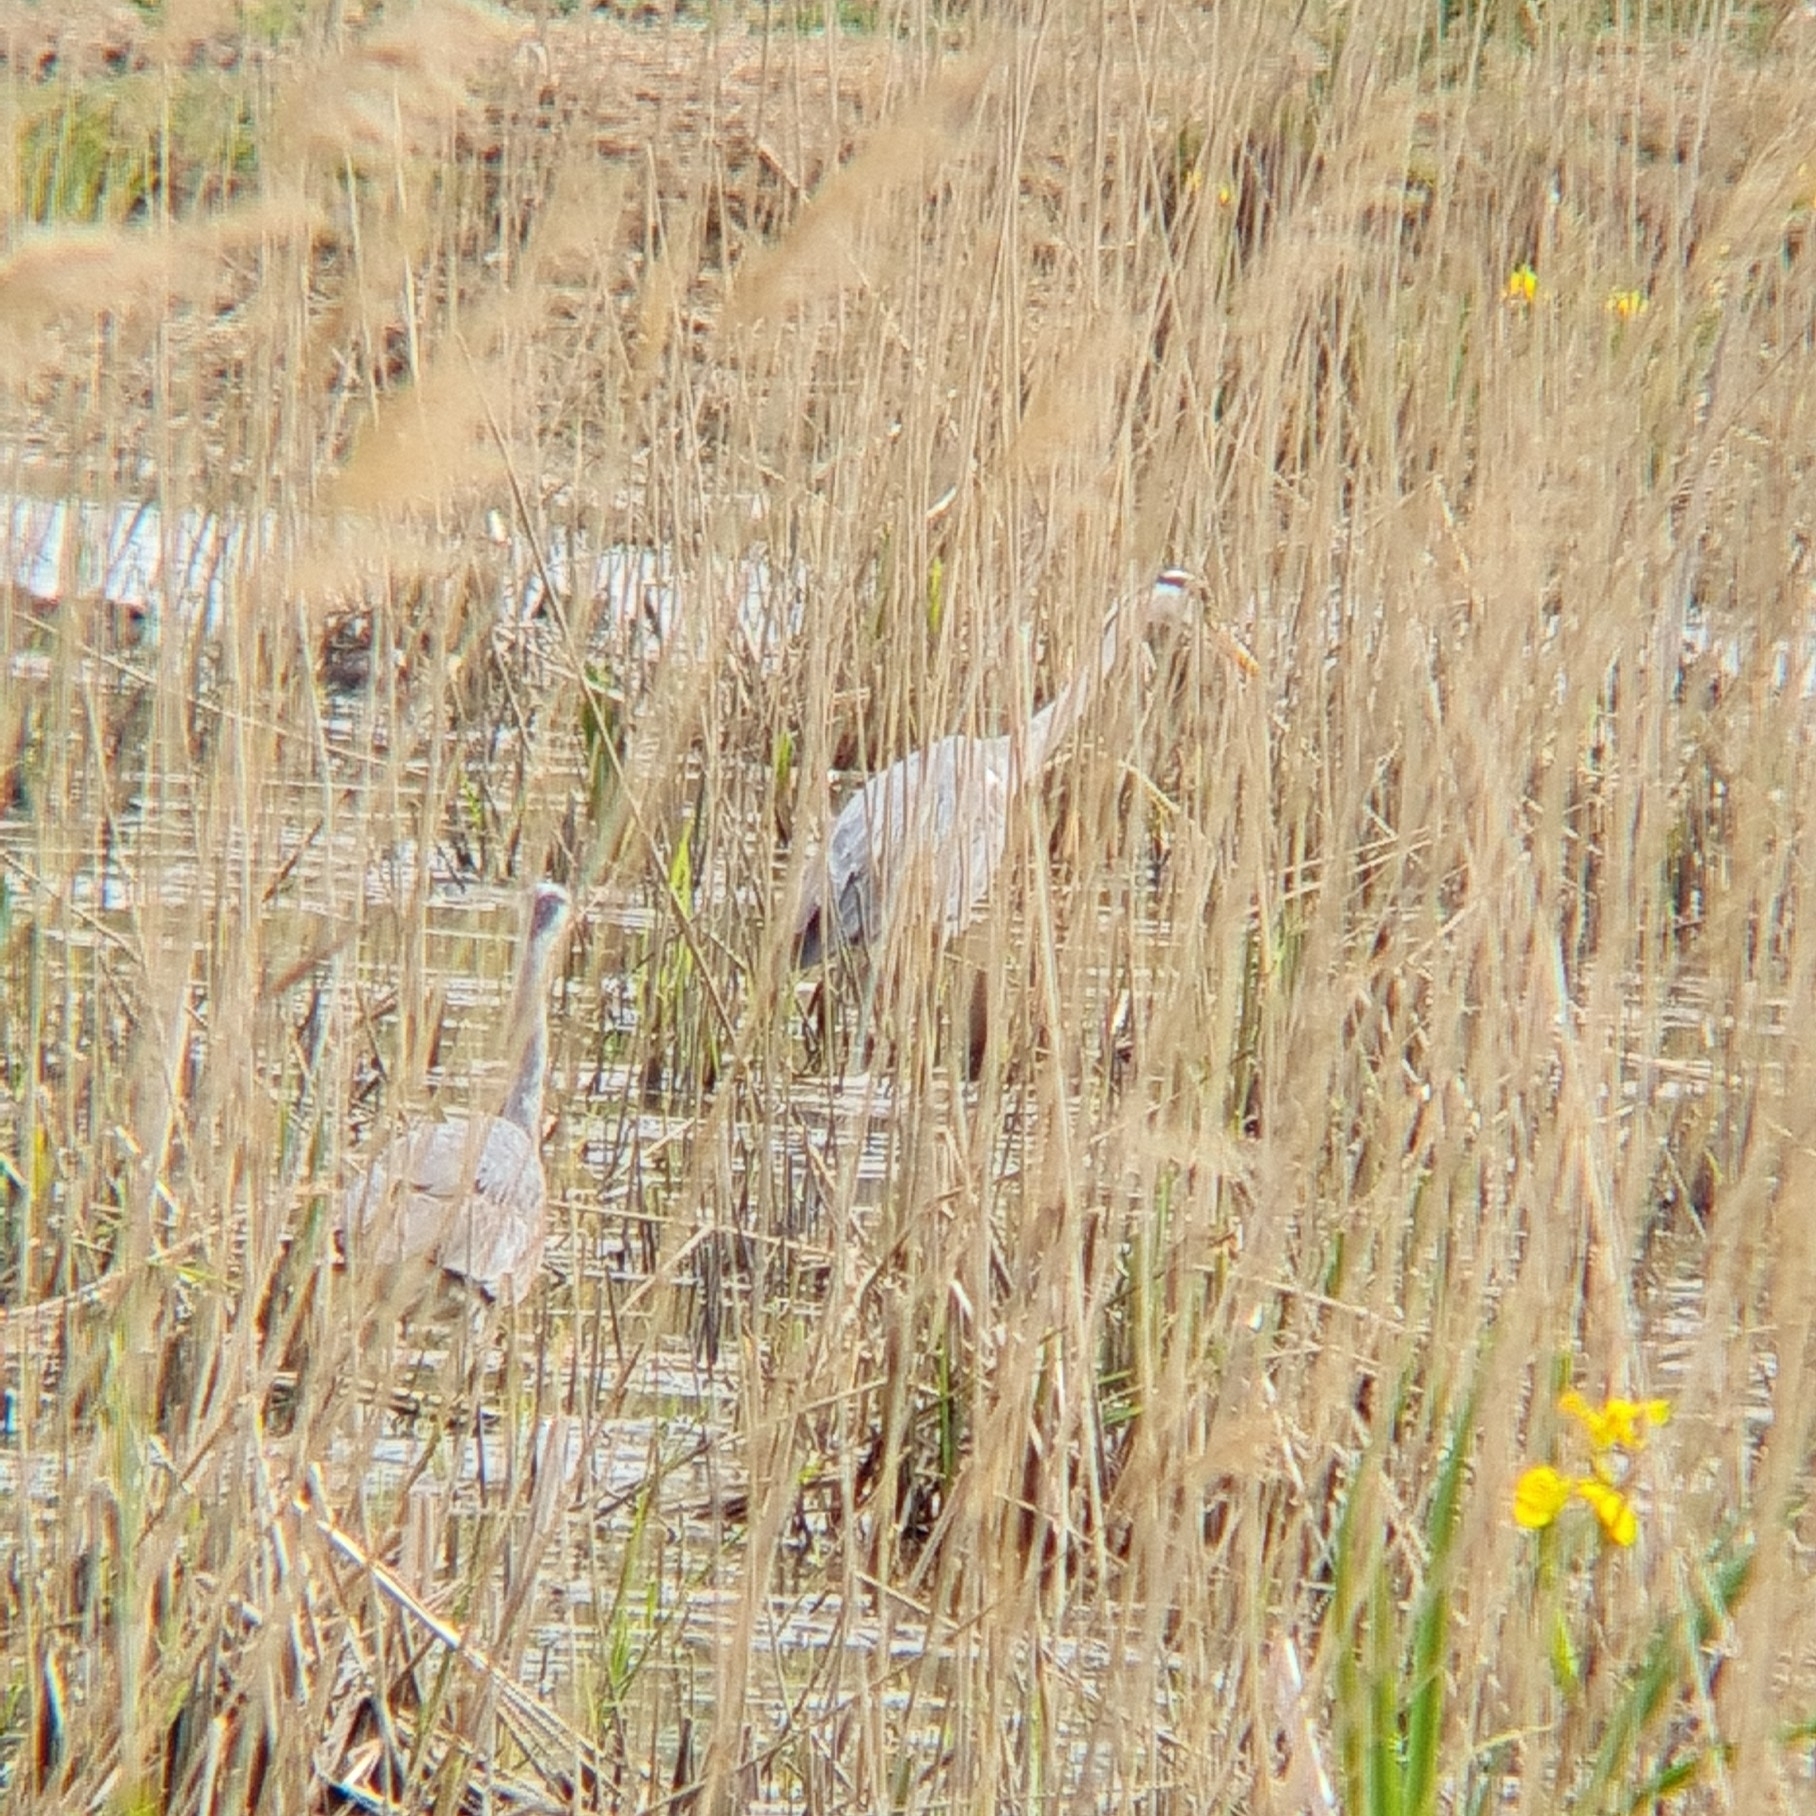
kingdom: Animalia
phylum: Chordata
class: Aves
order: Pelecaniformes
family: Ardeidae
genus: Ardea
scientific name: Ardea cinerea
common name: Grey heron
